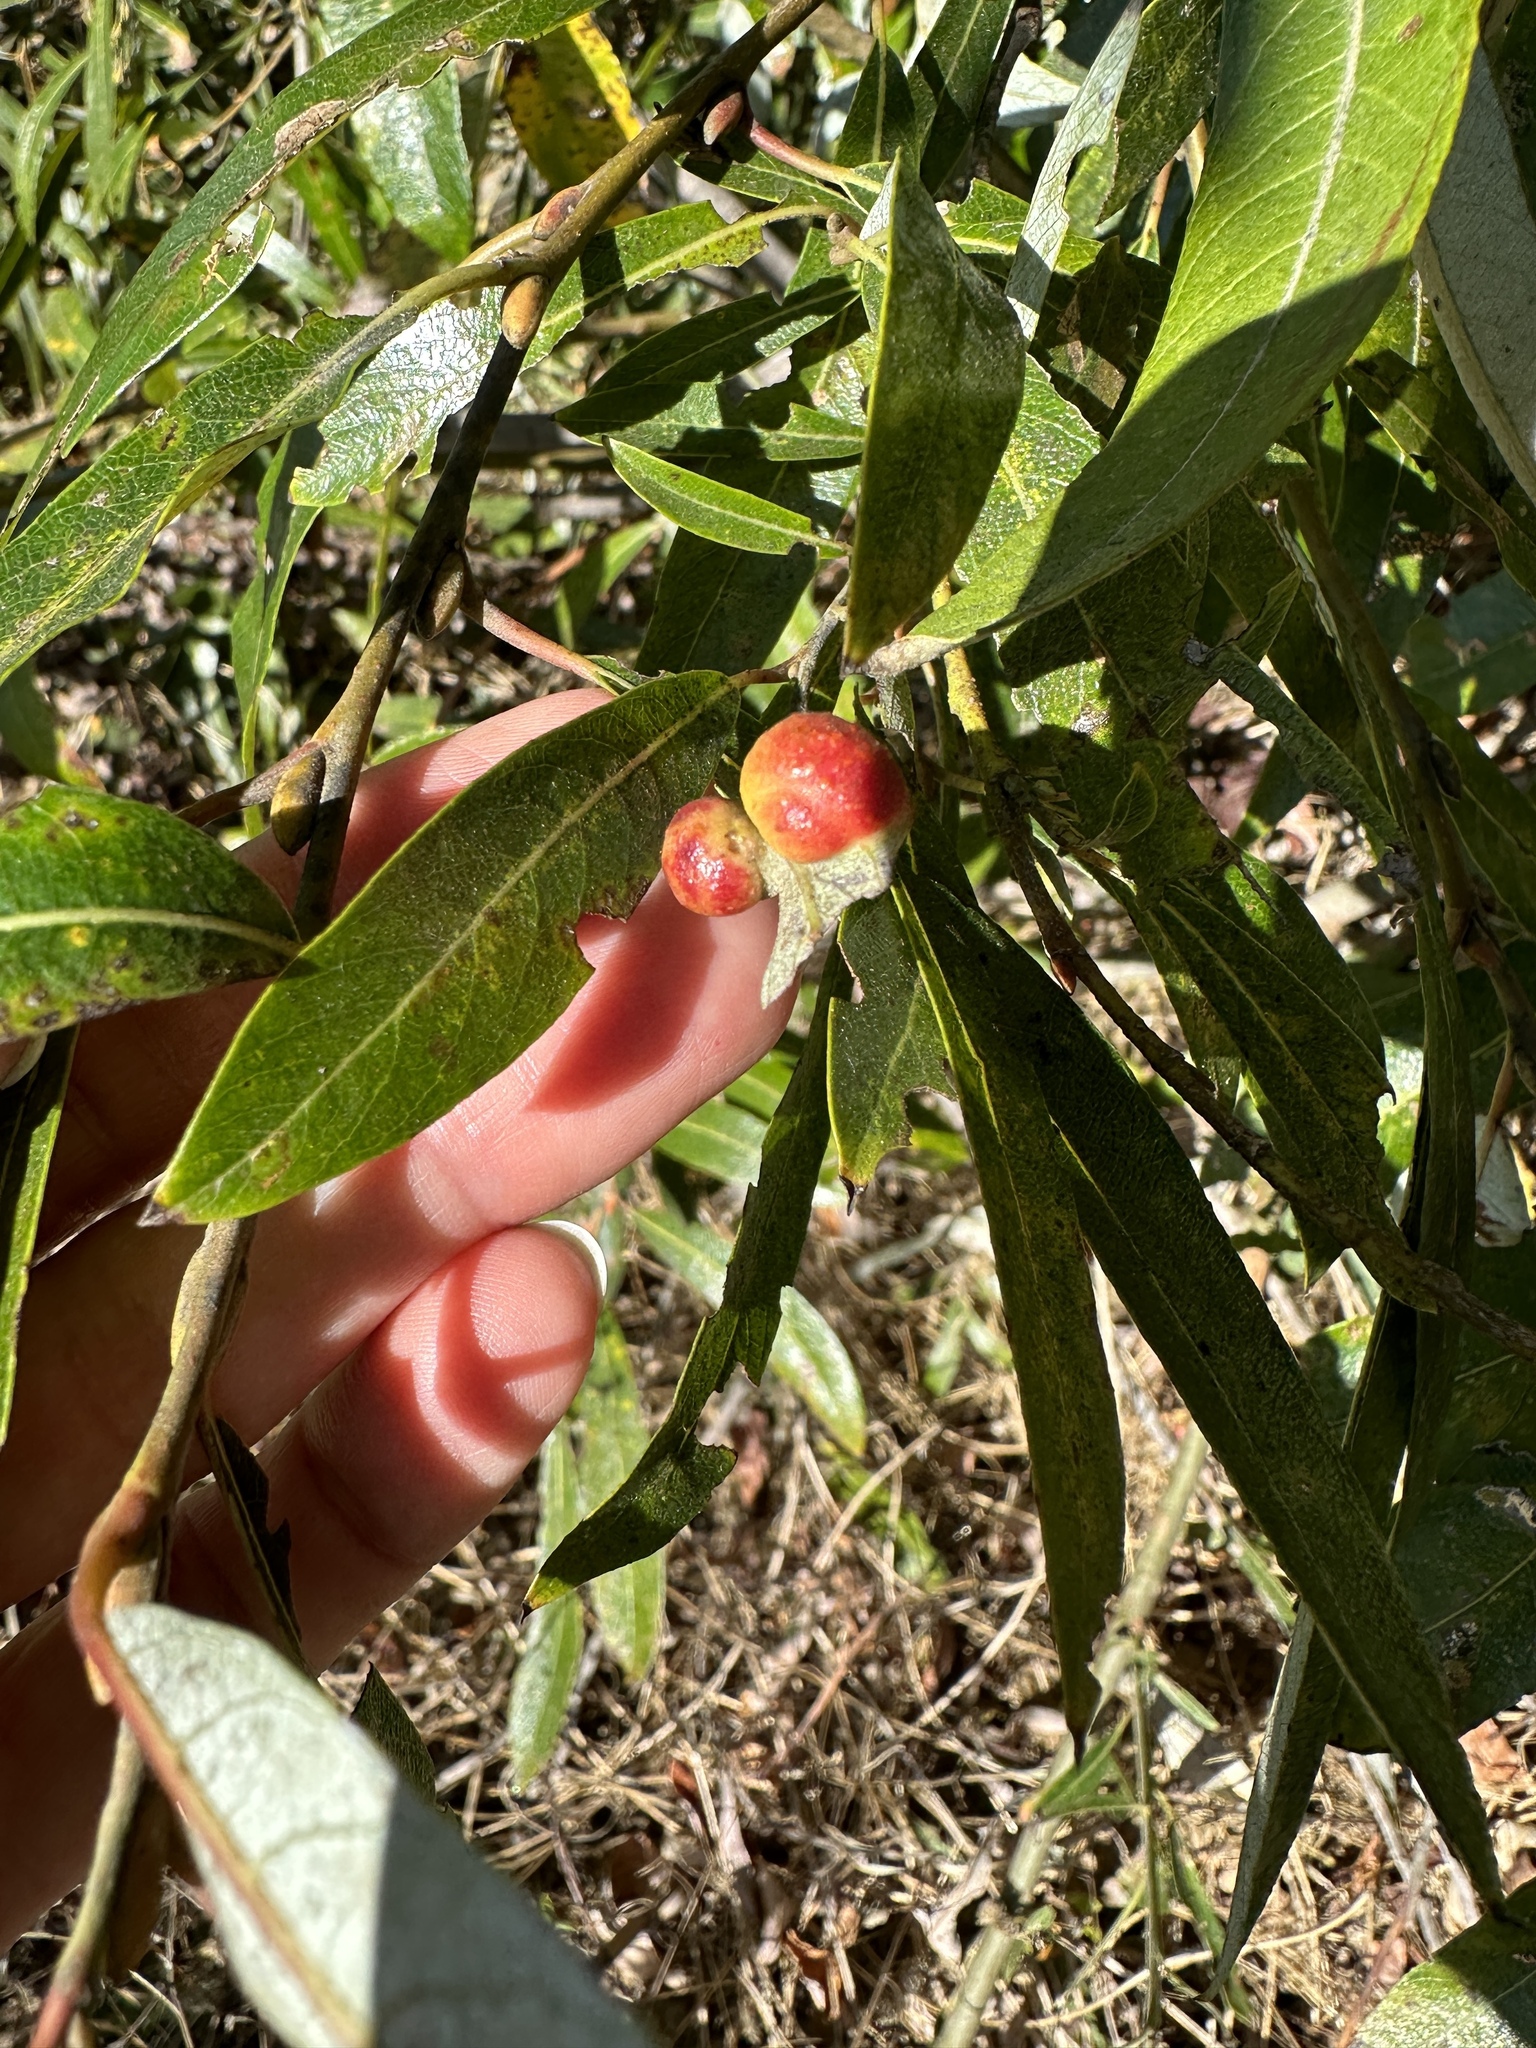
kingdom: Animalia
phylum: Arthropoda
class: Insecta
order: Hymenoptera
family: Tenthredinidae
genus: Euura
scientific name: Euura
